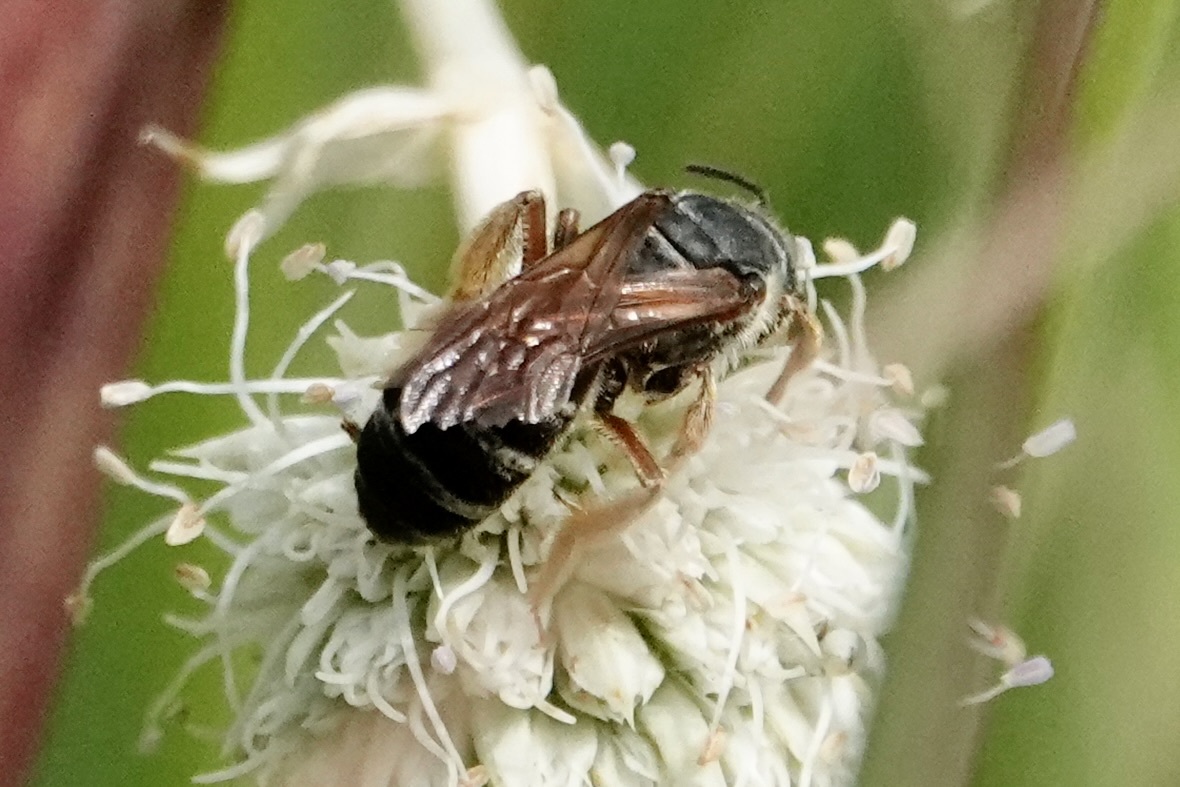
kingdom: Animalia
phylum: Arthropoda
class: Insecta
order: Hymenoptera
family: Halictidae
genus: Halictus
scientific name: Halictus parallelus
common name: Parallel-striped sweat bee
